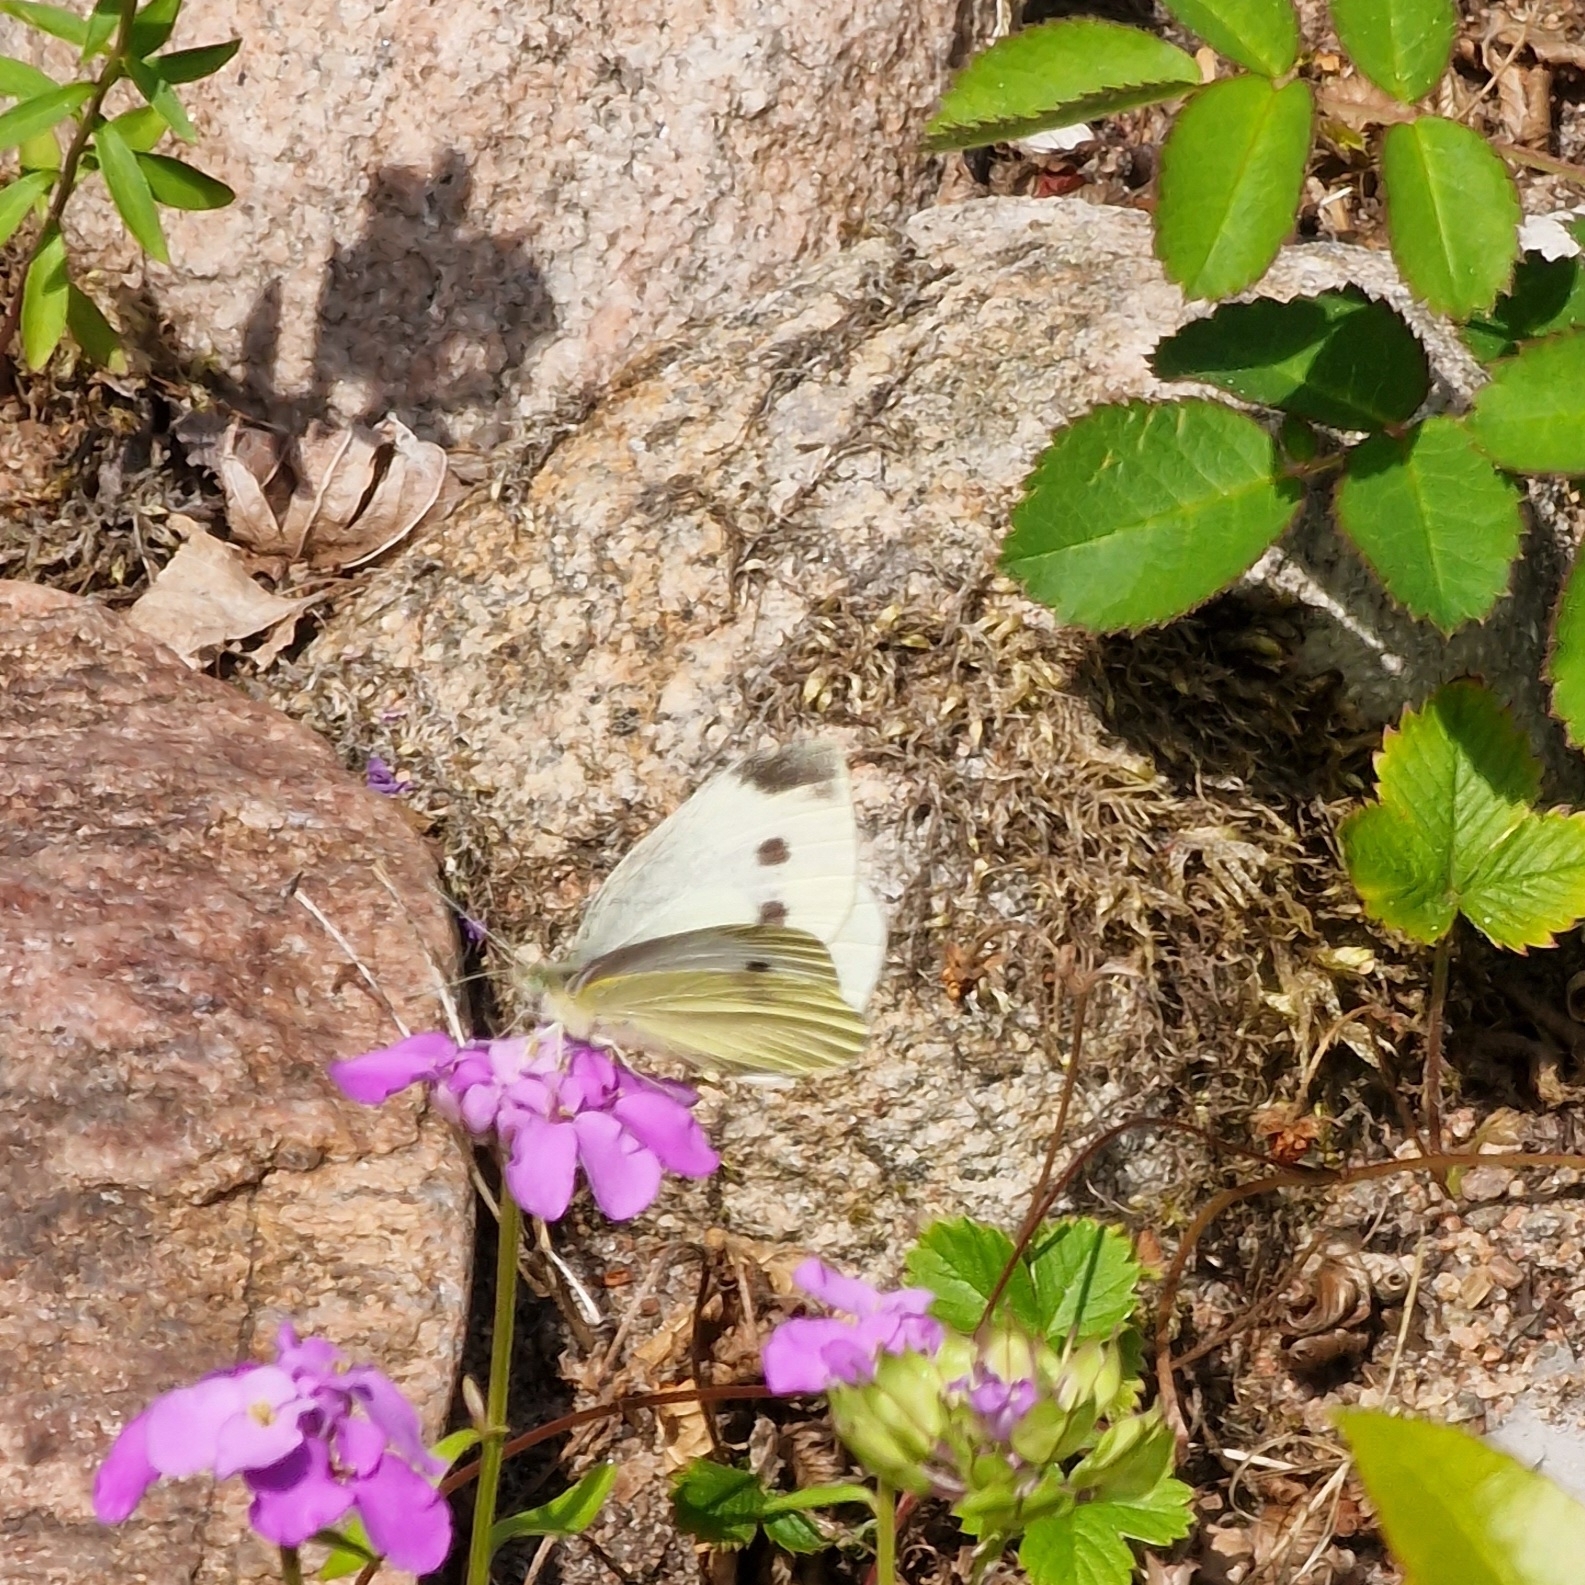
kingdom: Animalia
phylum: Arthropoda
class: Insecta
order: Lepidoptera
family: Pieridae
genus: Pieris
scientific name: Pieris rapae
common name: Small white
